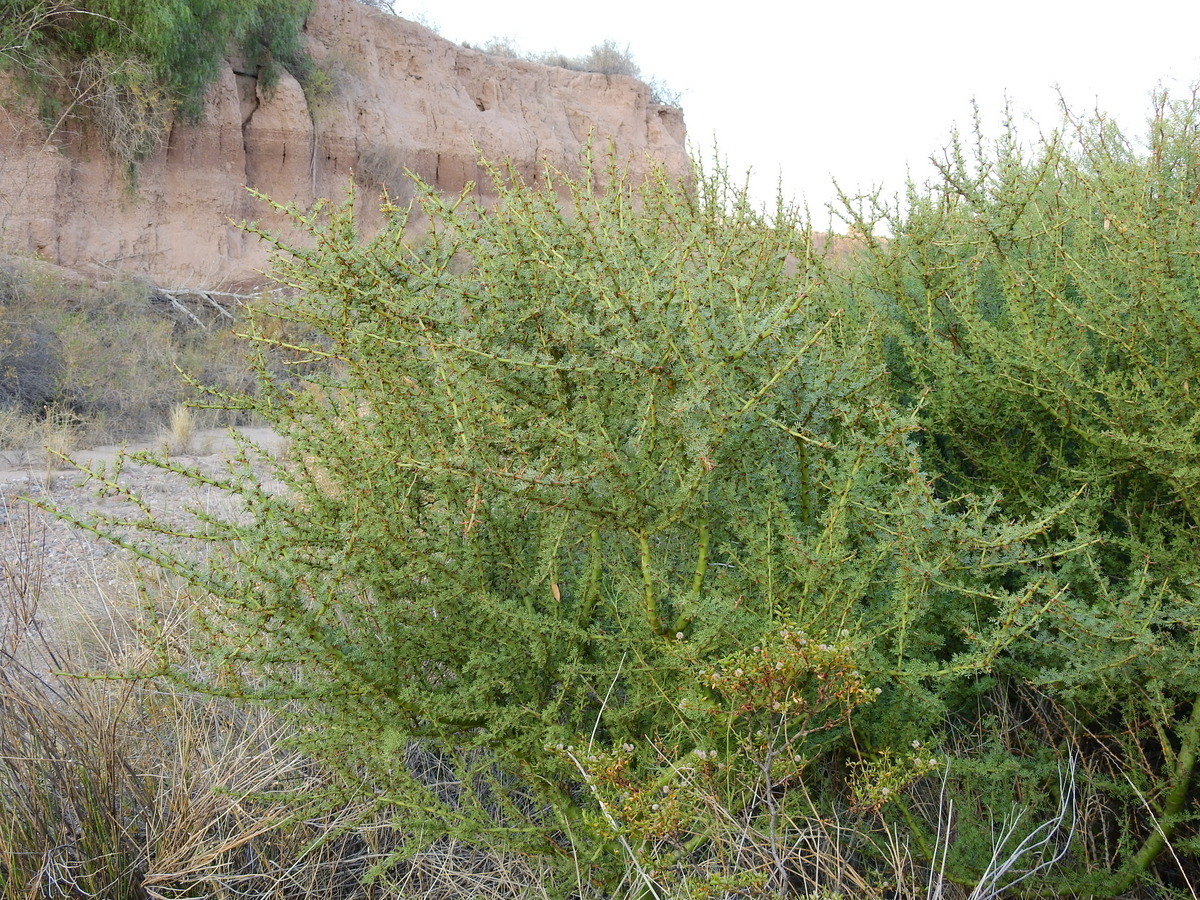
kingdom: Plantae
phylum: Tracheophyta
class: Magnoliopsida
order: Fabales
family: Fabaceae
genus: Parkinsonia
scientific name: Parkinsonia praecox
